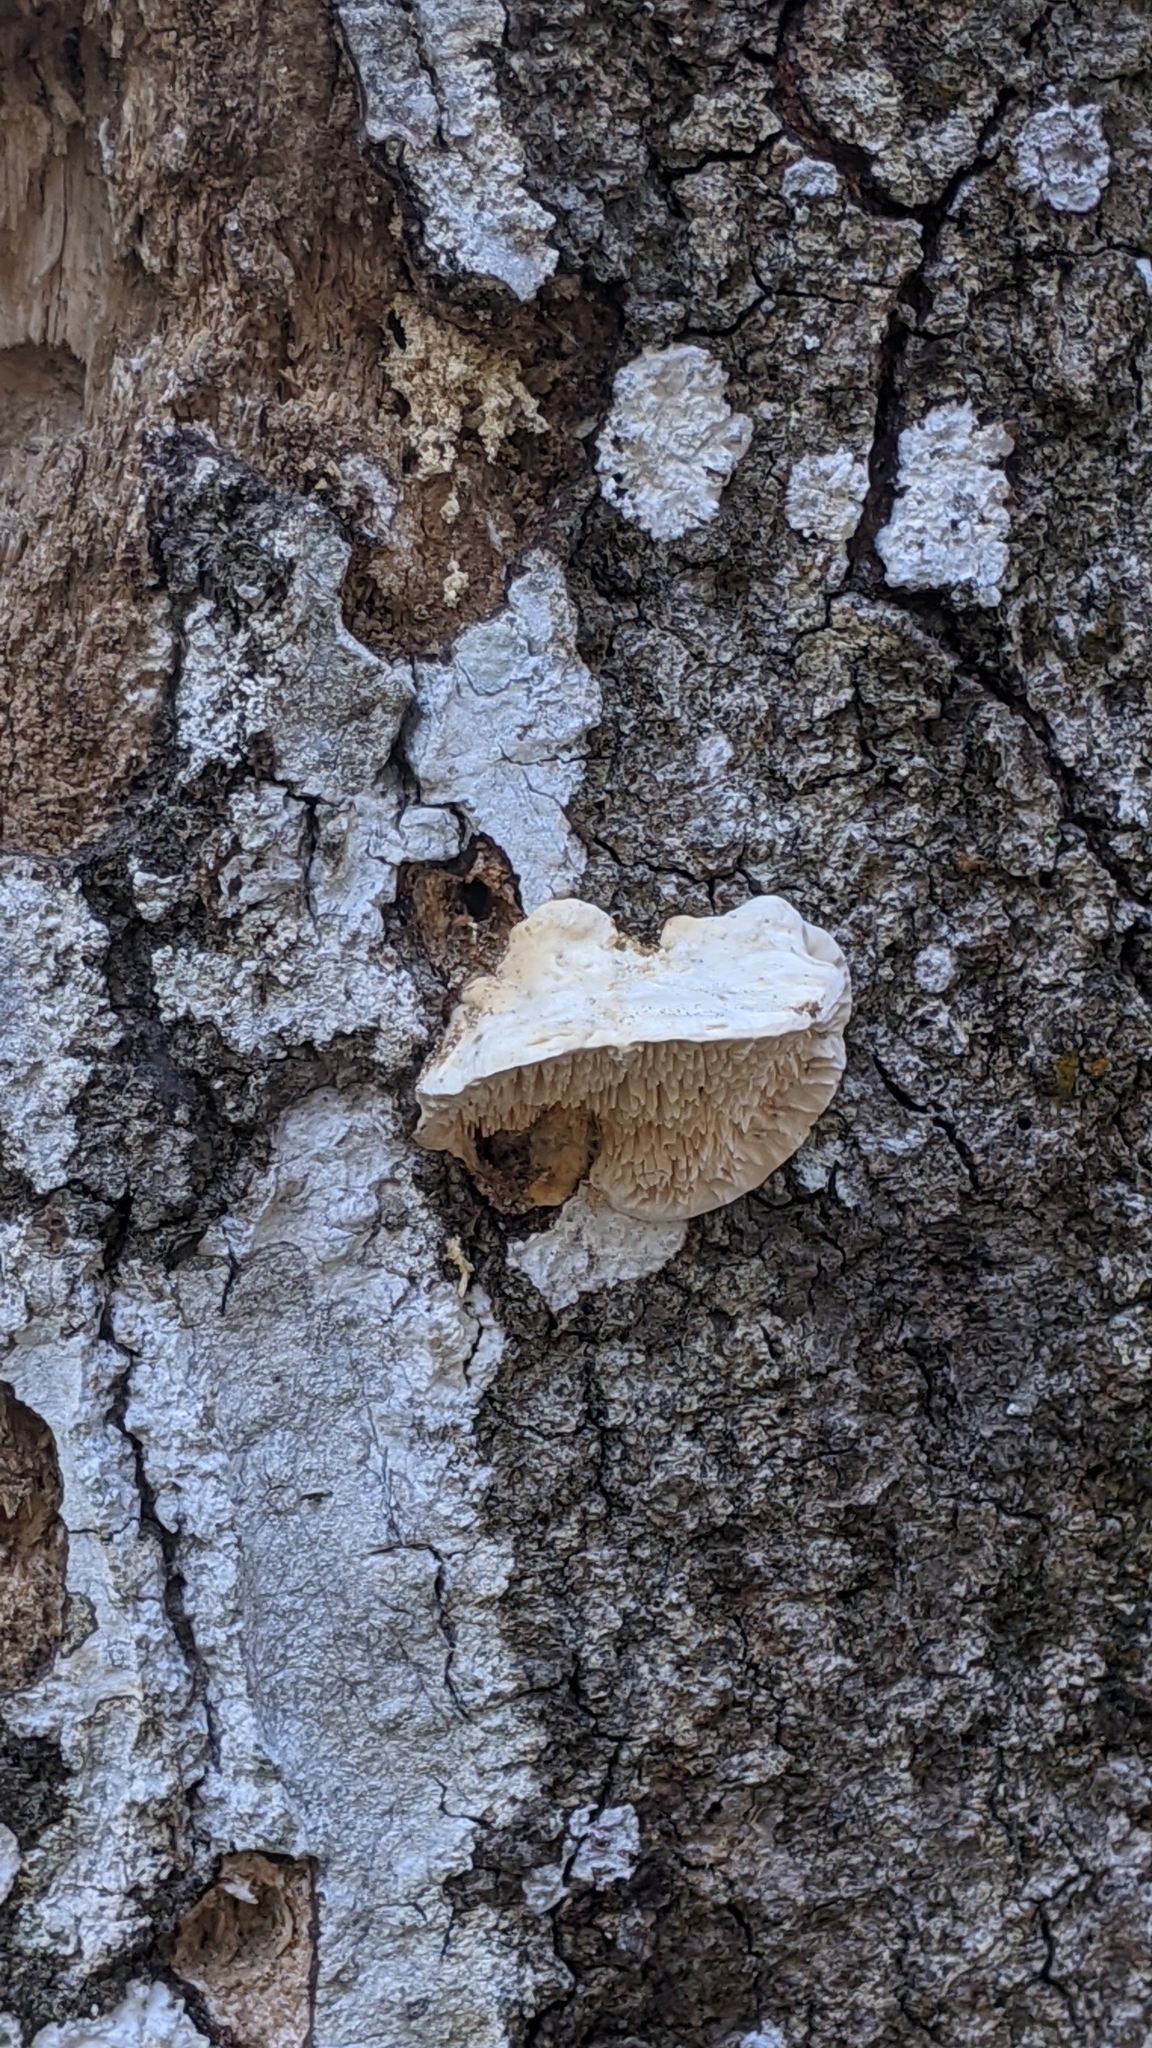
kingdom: Fungi
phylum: Basidiomycota
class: Agaricomycetes
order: Polyporales
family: Meruliaceae
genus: Irpiciporus
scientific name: Irpiciporus pachyodon
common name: Marshmallow polypore
